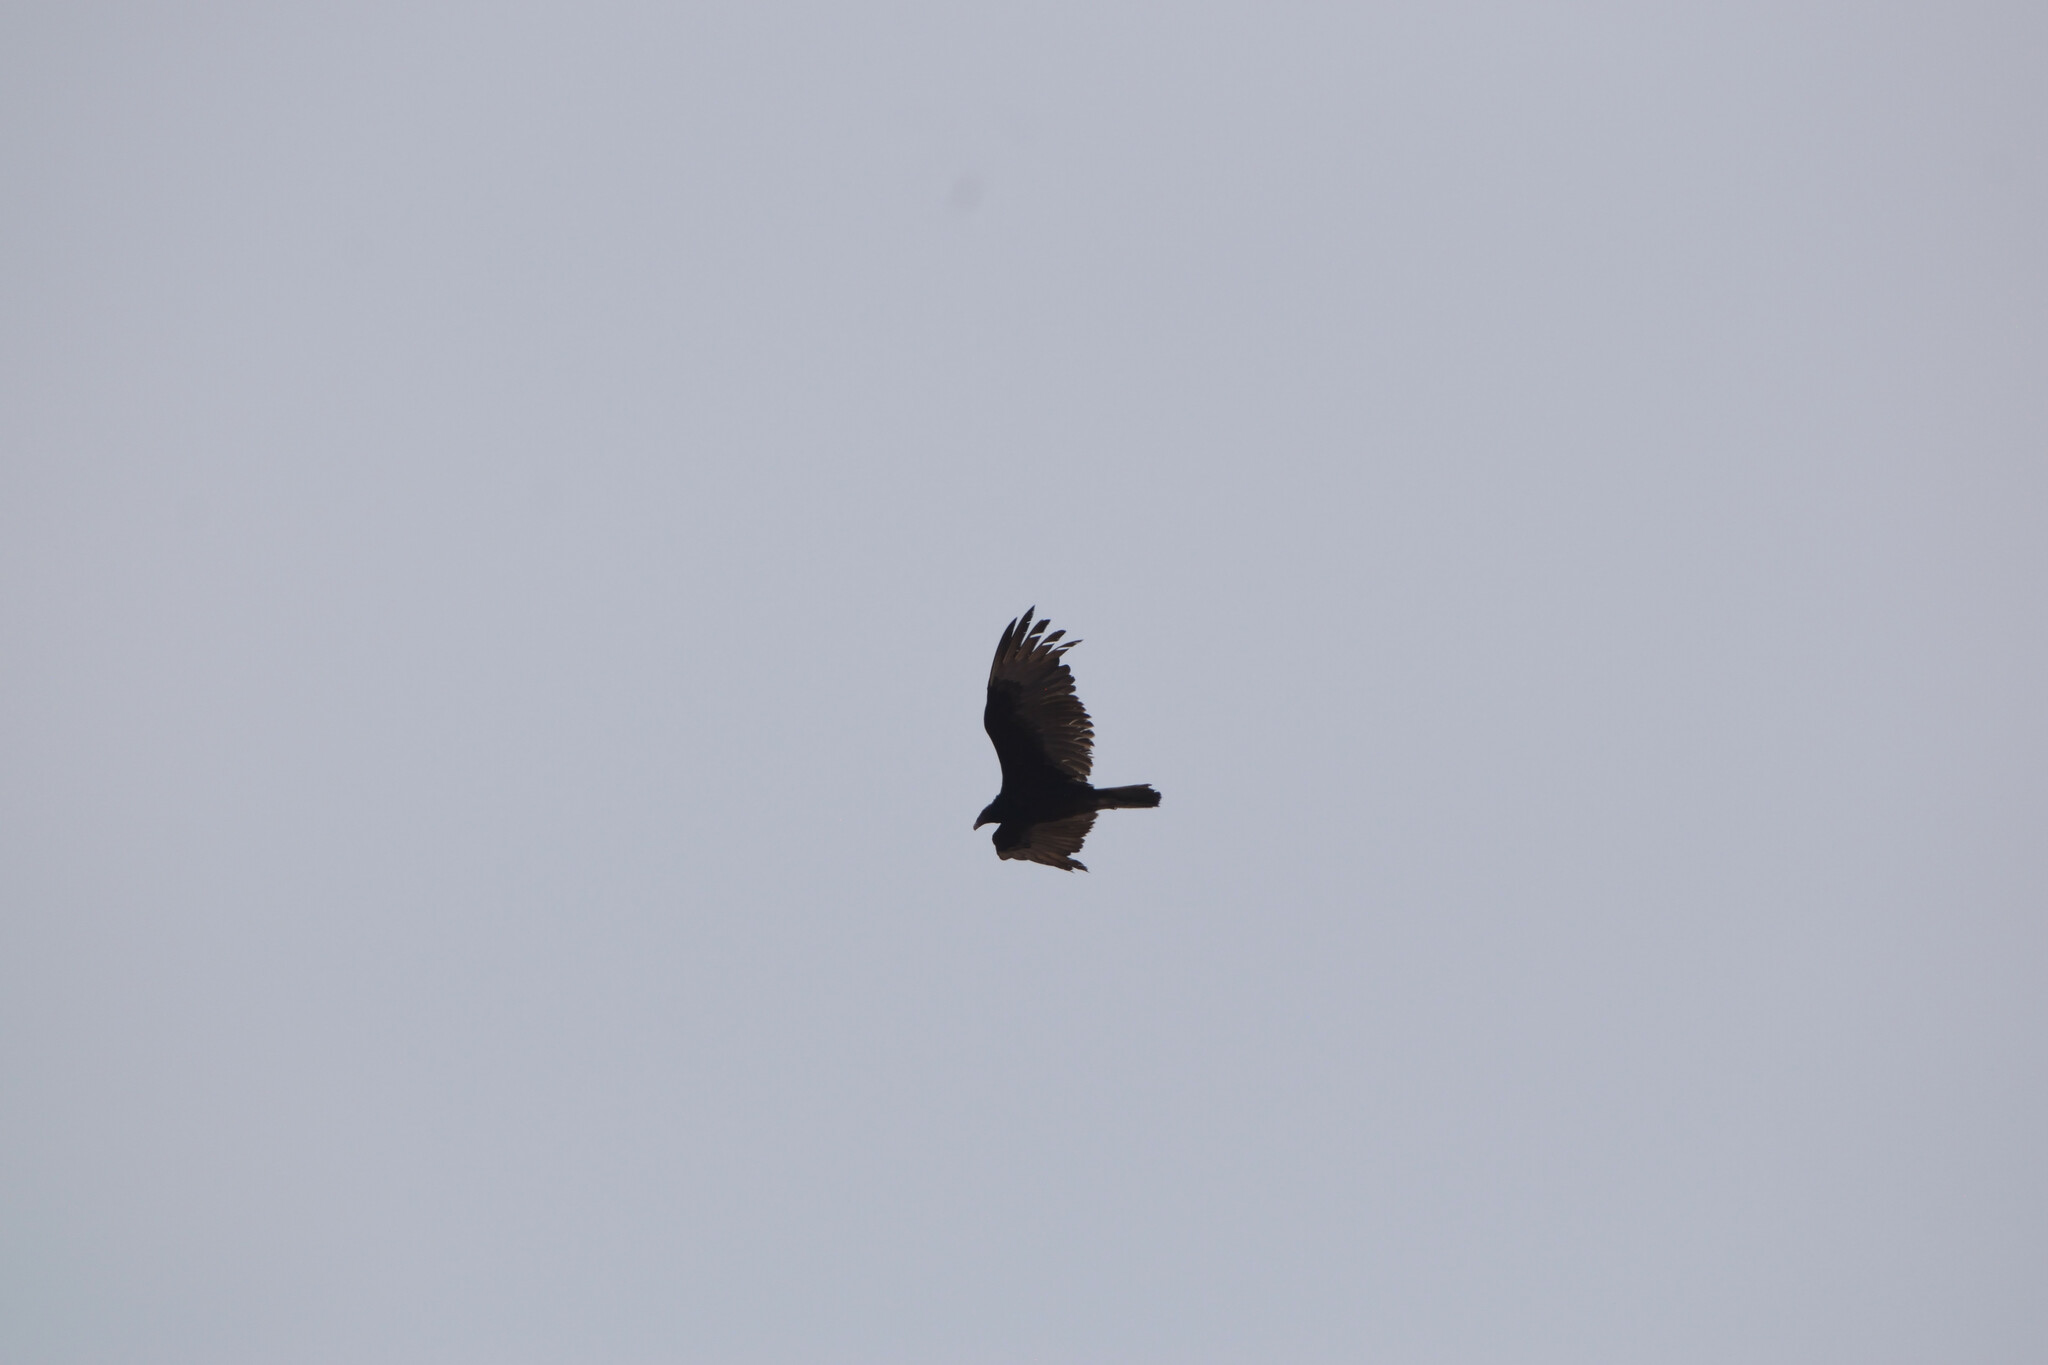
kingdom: Animalia
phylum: Chordata
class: Aves
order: Accipitriformes
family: Cathartidae
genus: Cathartes
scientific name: Cathartes aura
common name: Turkey vulture
